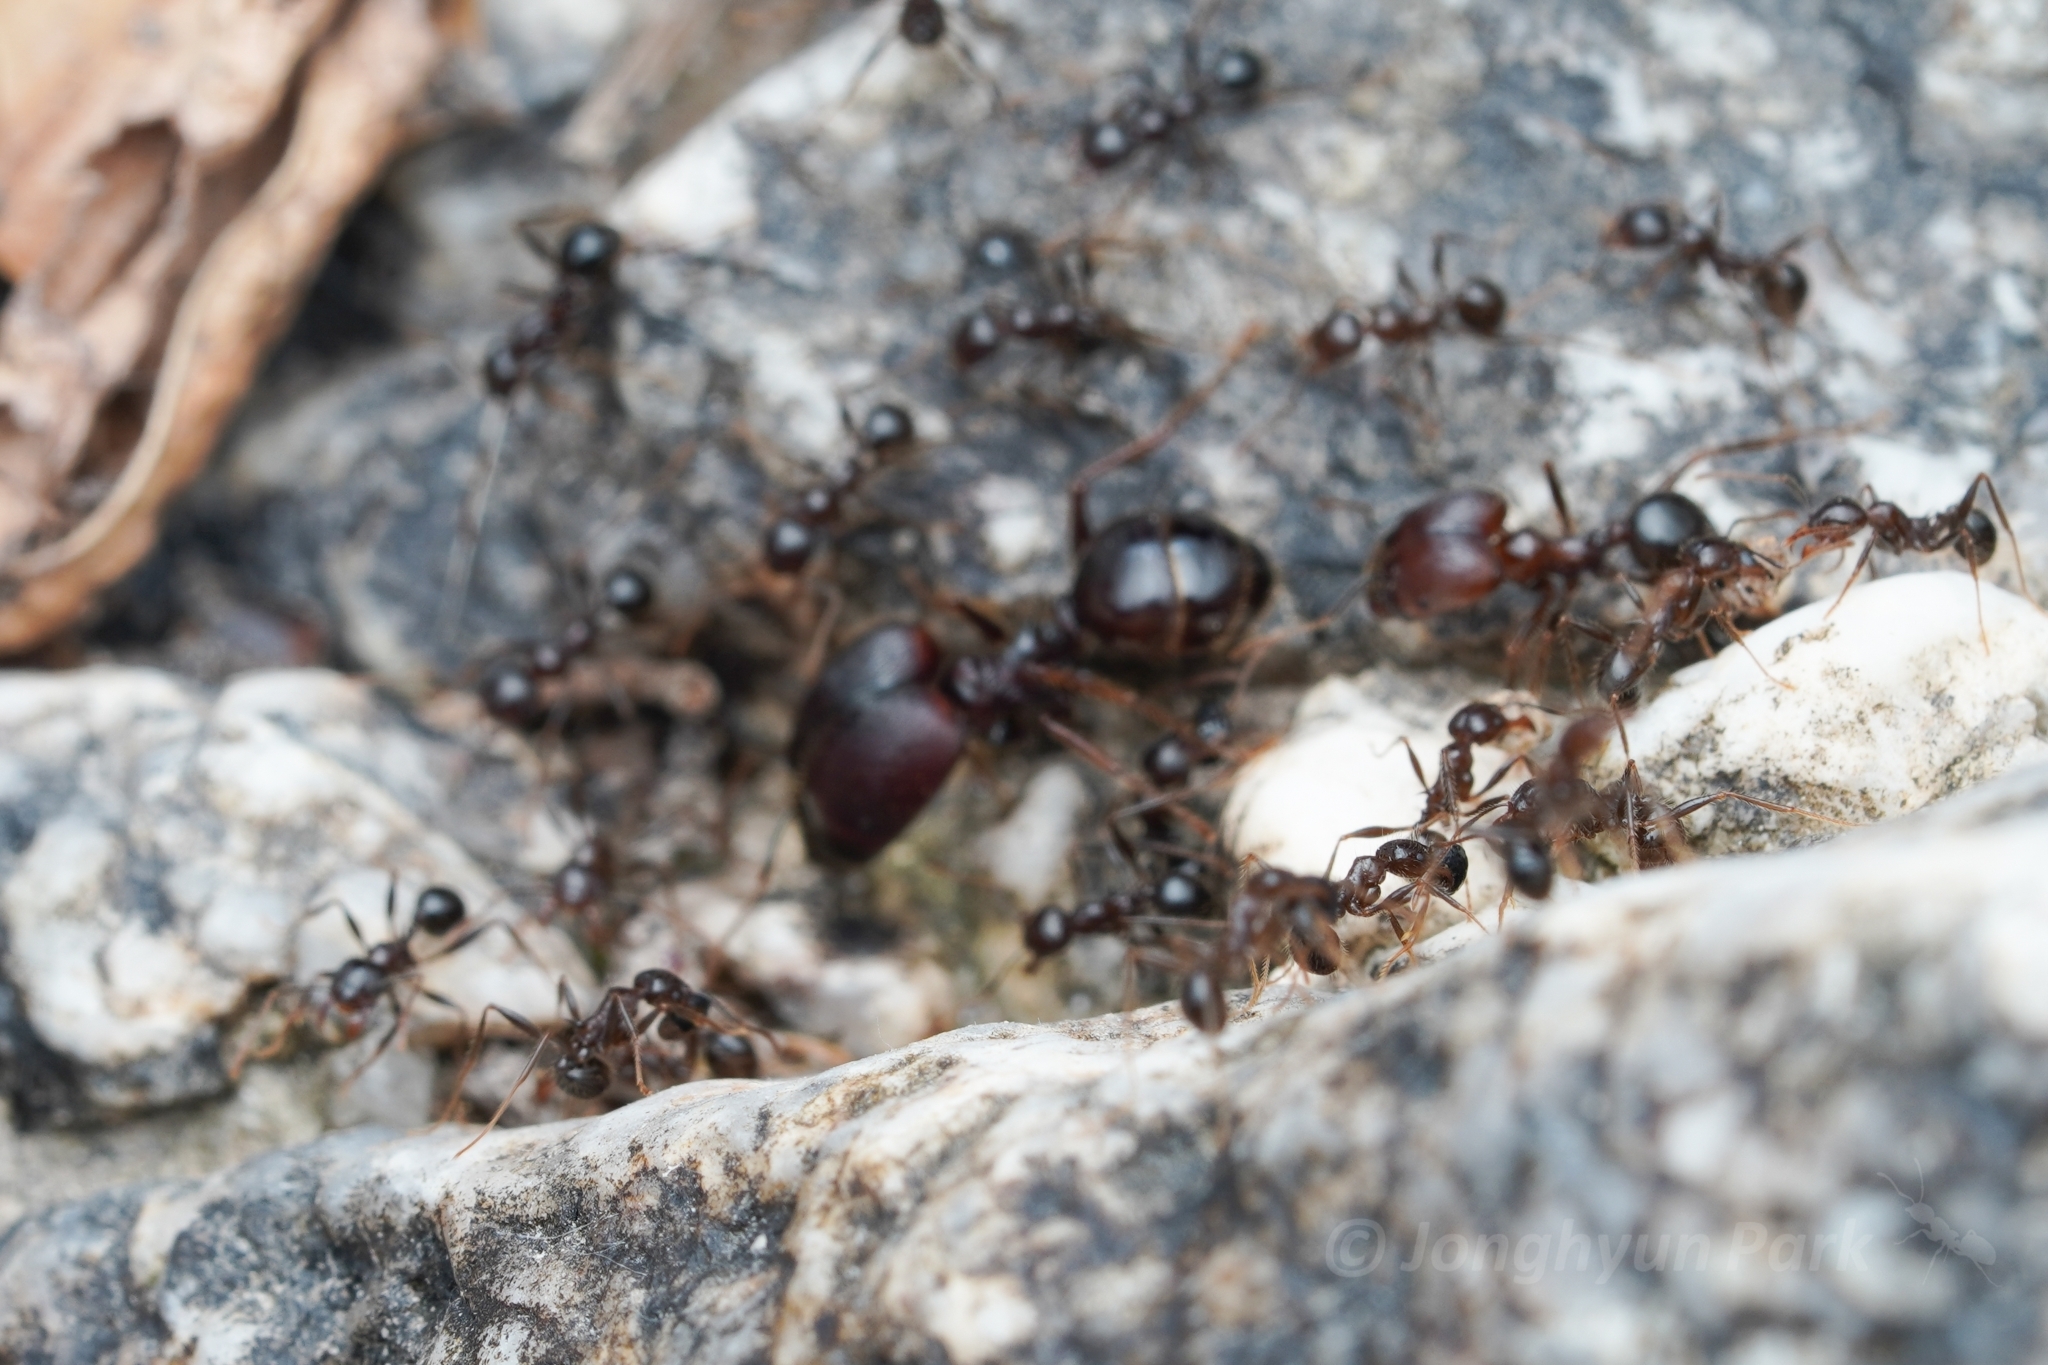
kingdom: Animalia
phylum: Arthropoda
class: Insecta
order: Hymenoptera
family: Formicidae
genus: Pheidole
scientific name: Pheidole rhea
